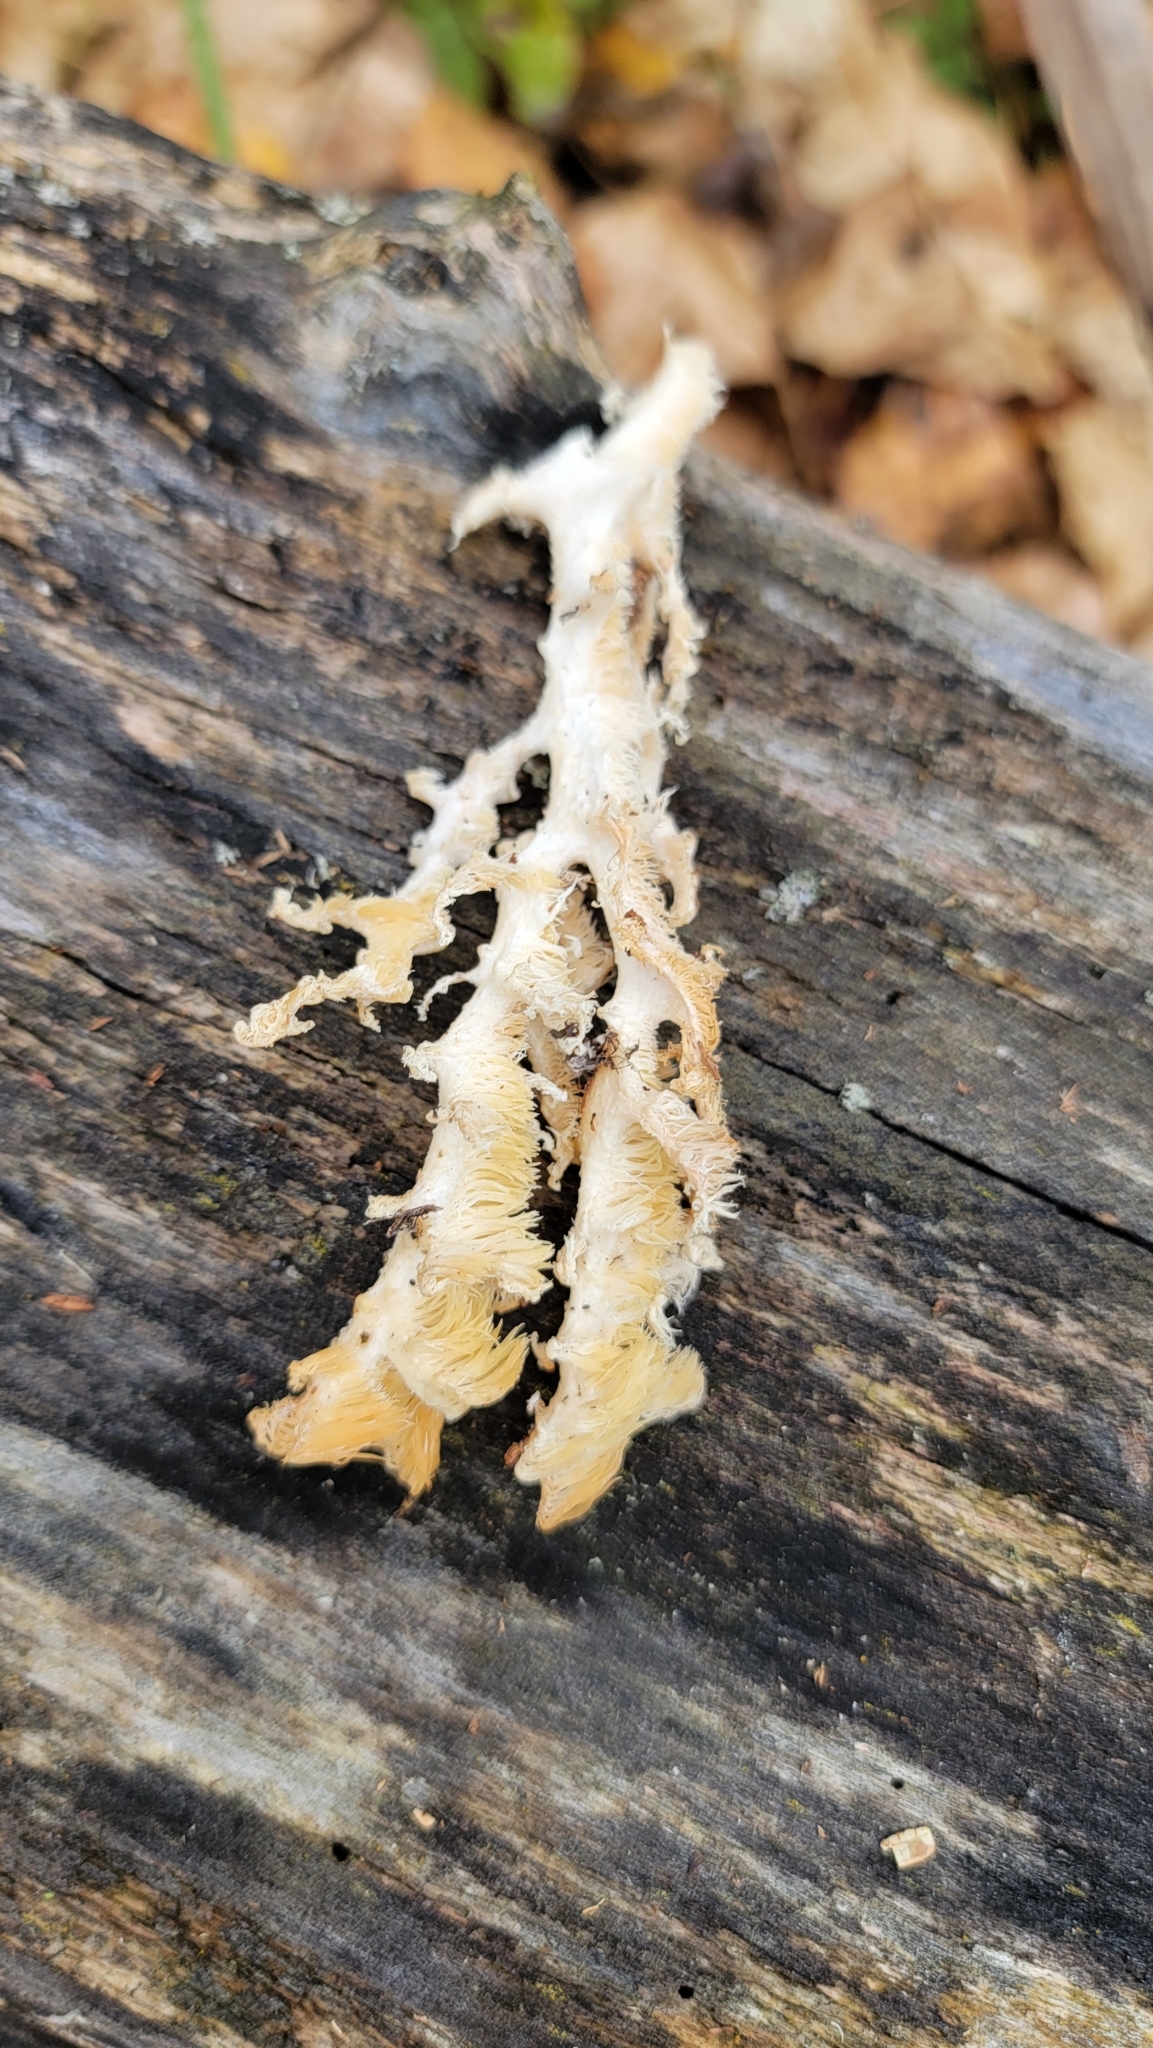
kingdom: Fungi
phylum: Basidiomycota
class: Agaricomycetes
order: Russulales
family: Hericiaceae
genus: Hericium
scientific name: Hericium coralloides
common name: Coral tooth
